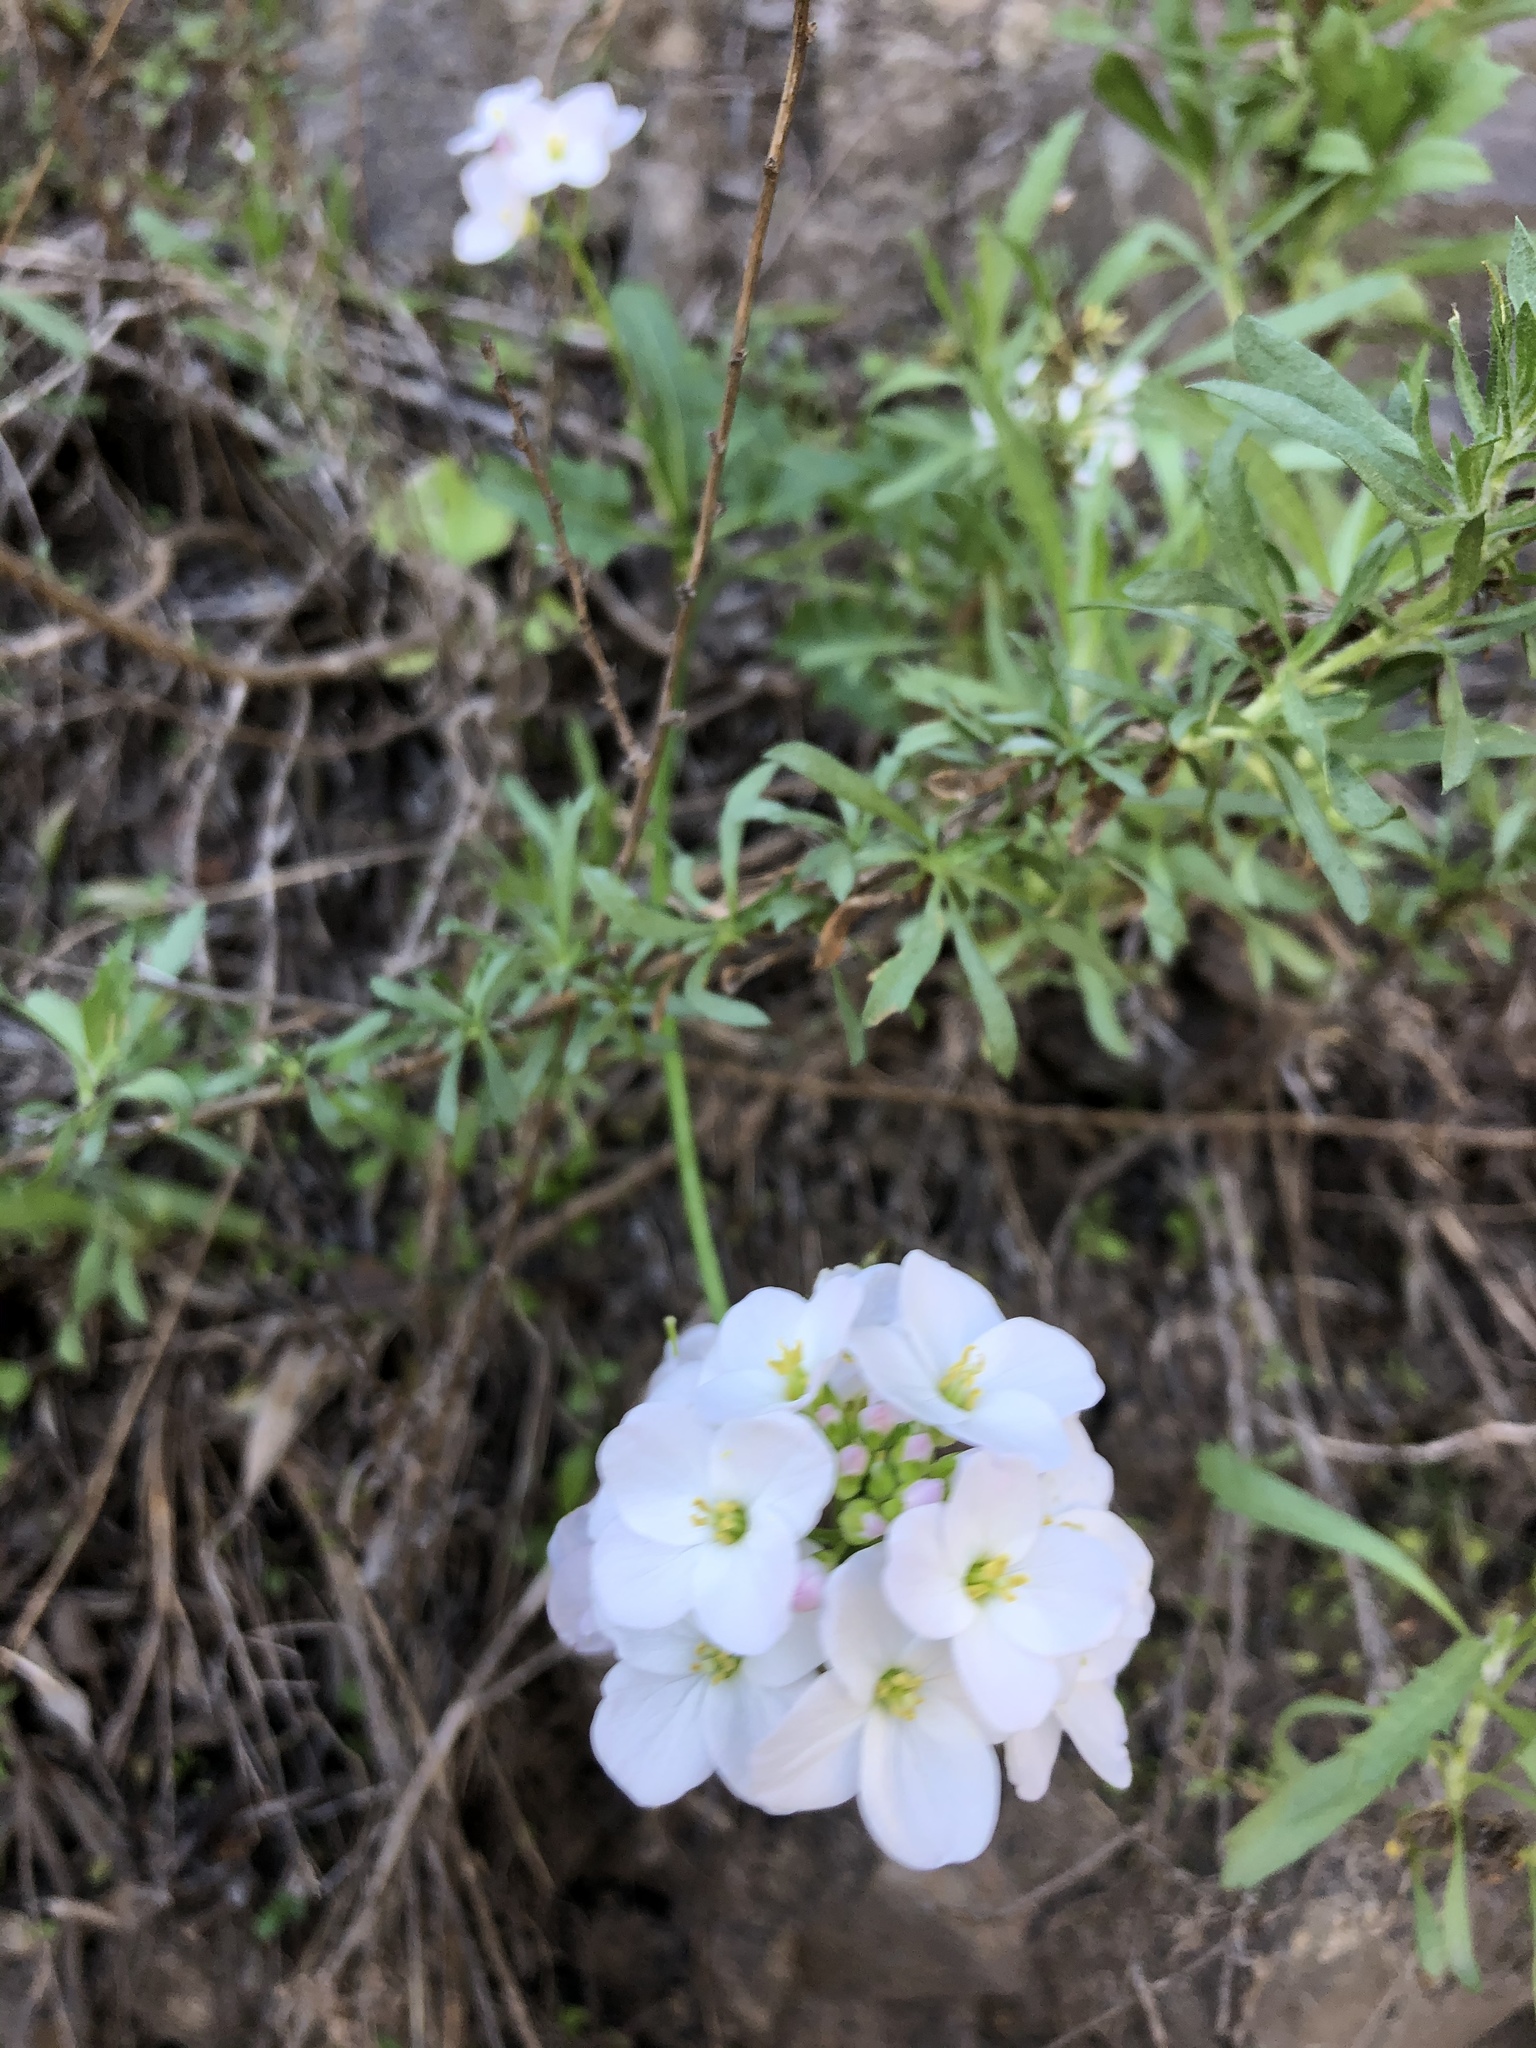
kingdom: Plantae
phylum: Tracheophyta
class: Magnoliopsida
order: Brassicales
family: Brassicaceae
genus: Cardamine
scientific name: Cardamine californica
